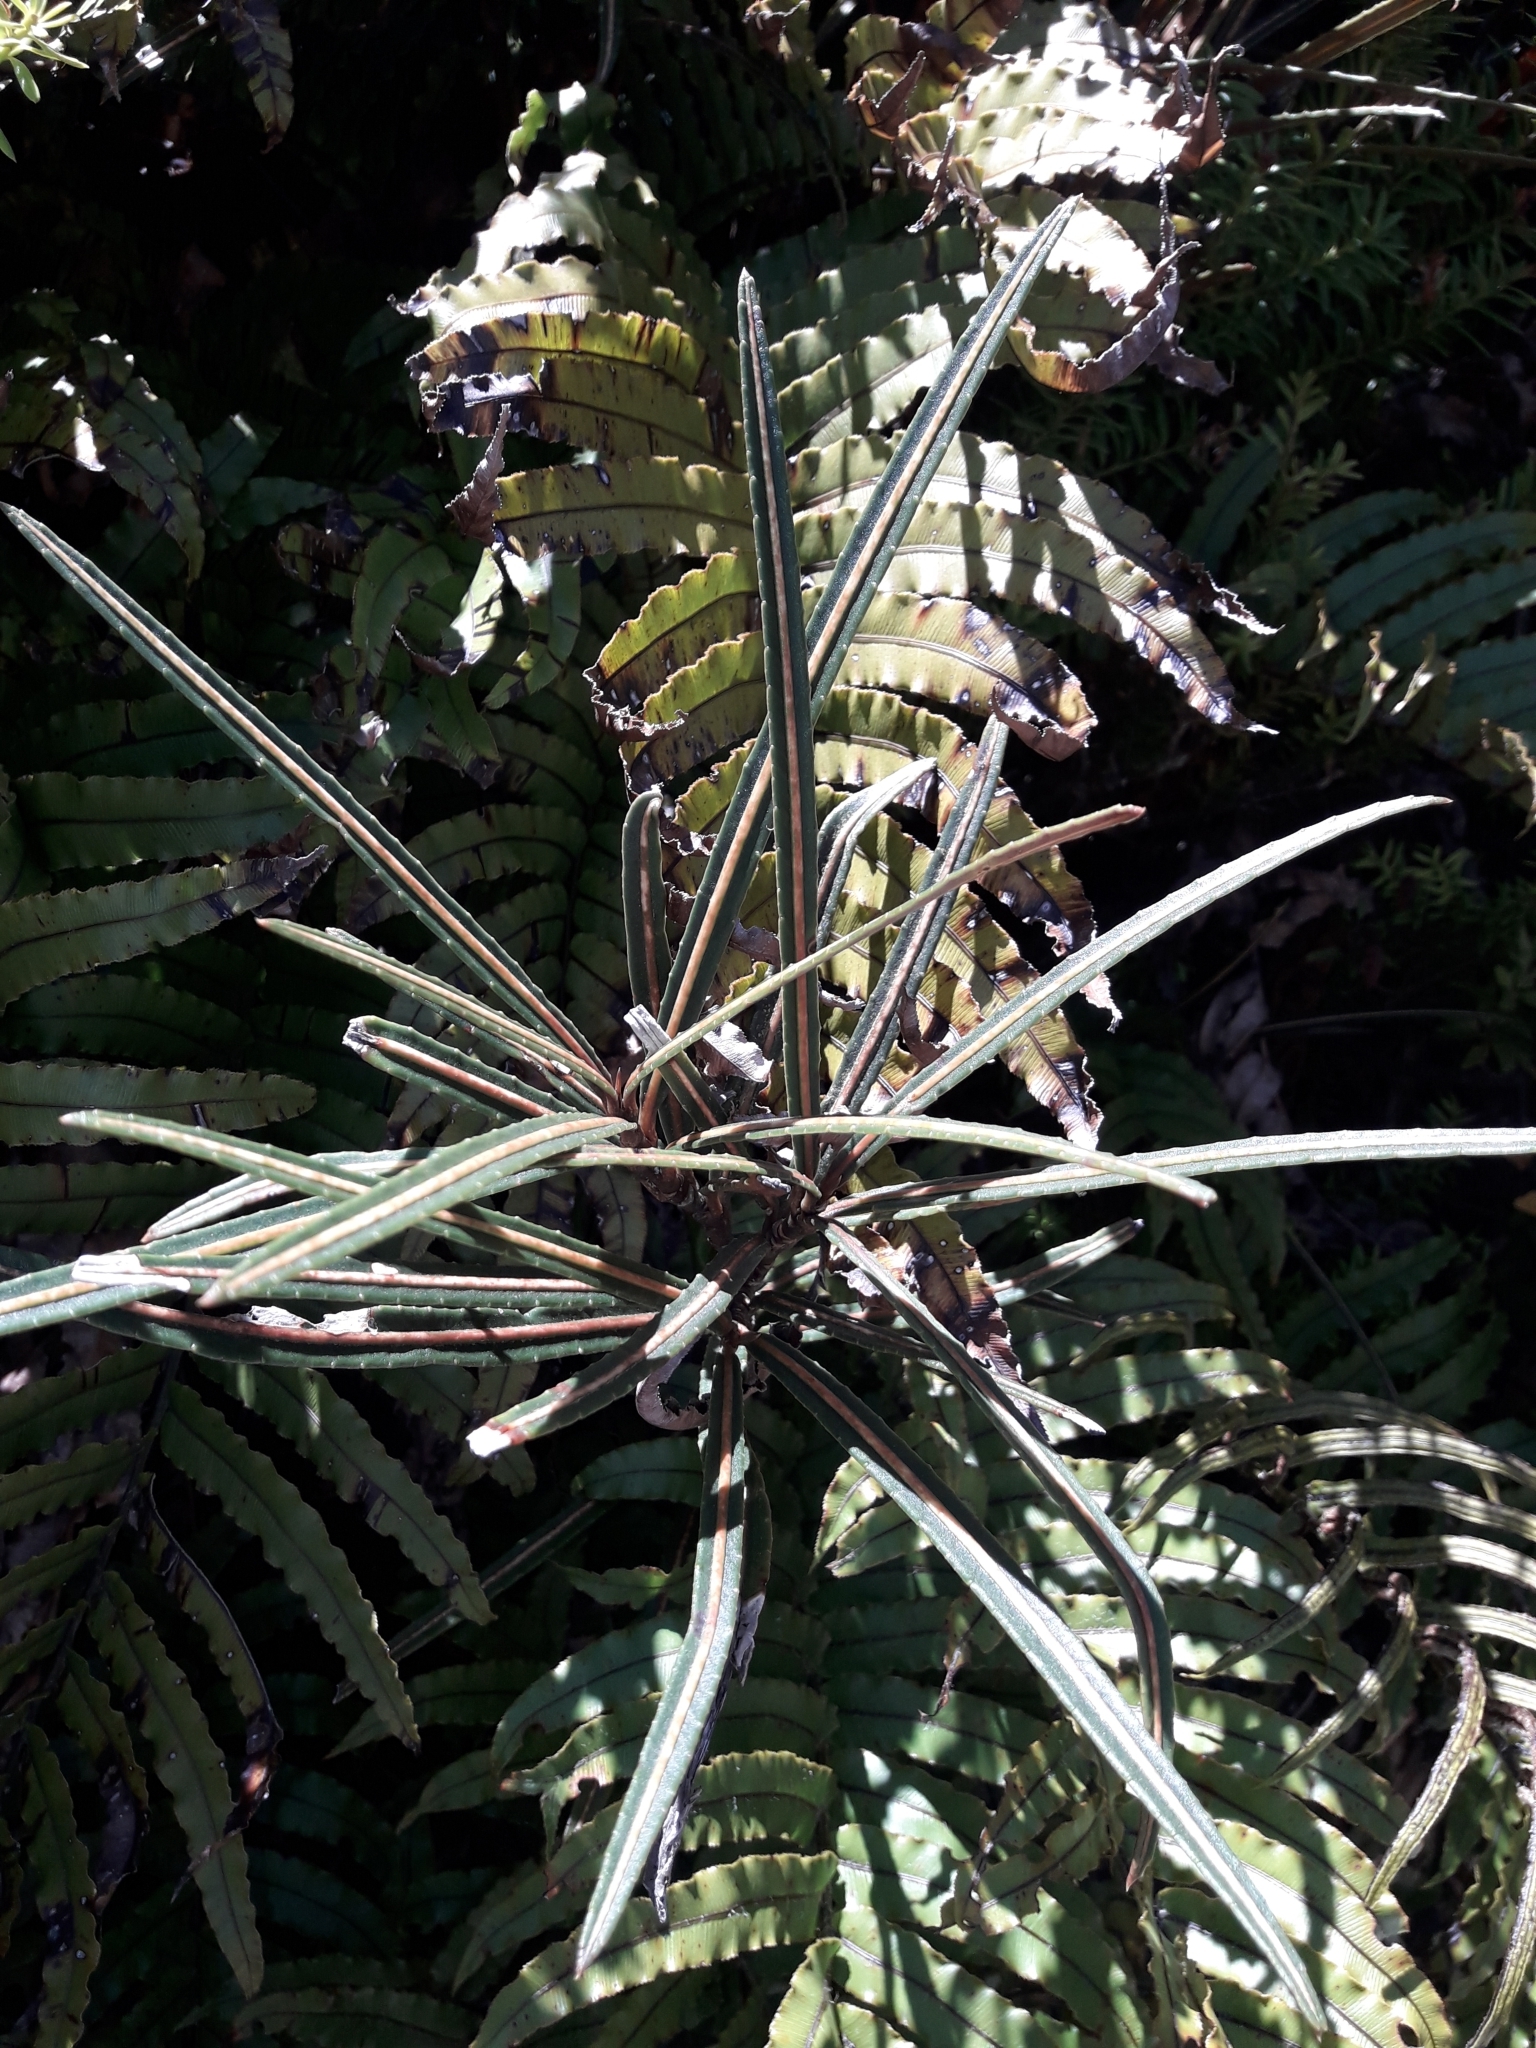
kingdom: Plantae
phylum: Tracheophyta
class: Magnoliopsida
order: Apiales
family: Araliaceae
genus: Pseudopanax
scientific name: Pseudopanax linearis
